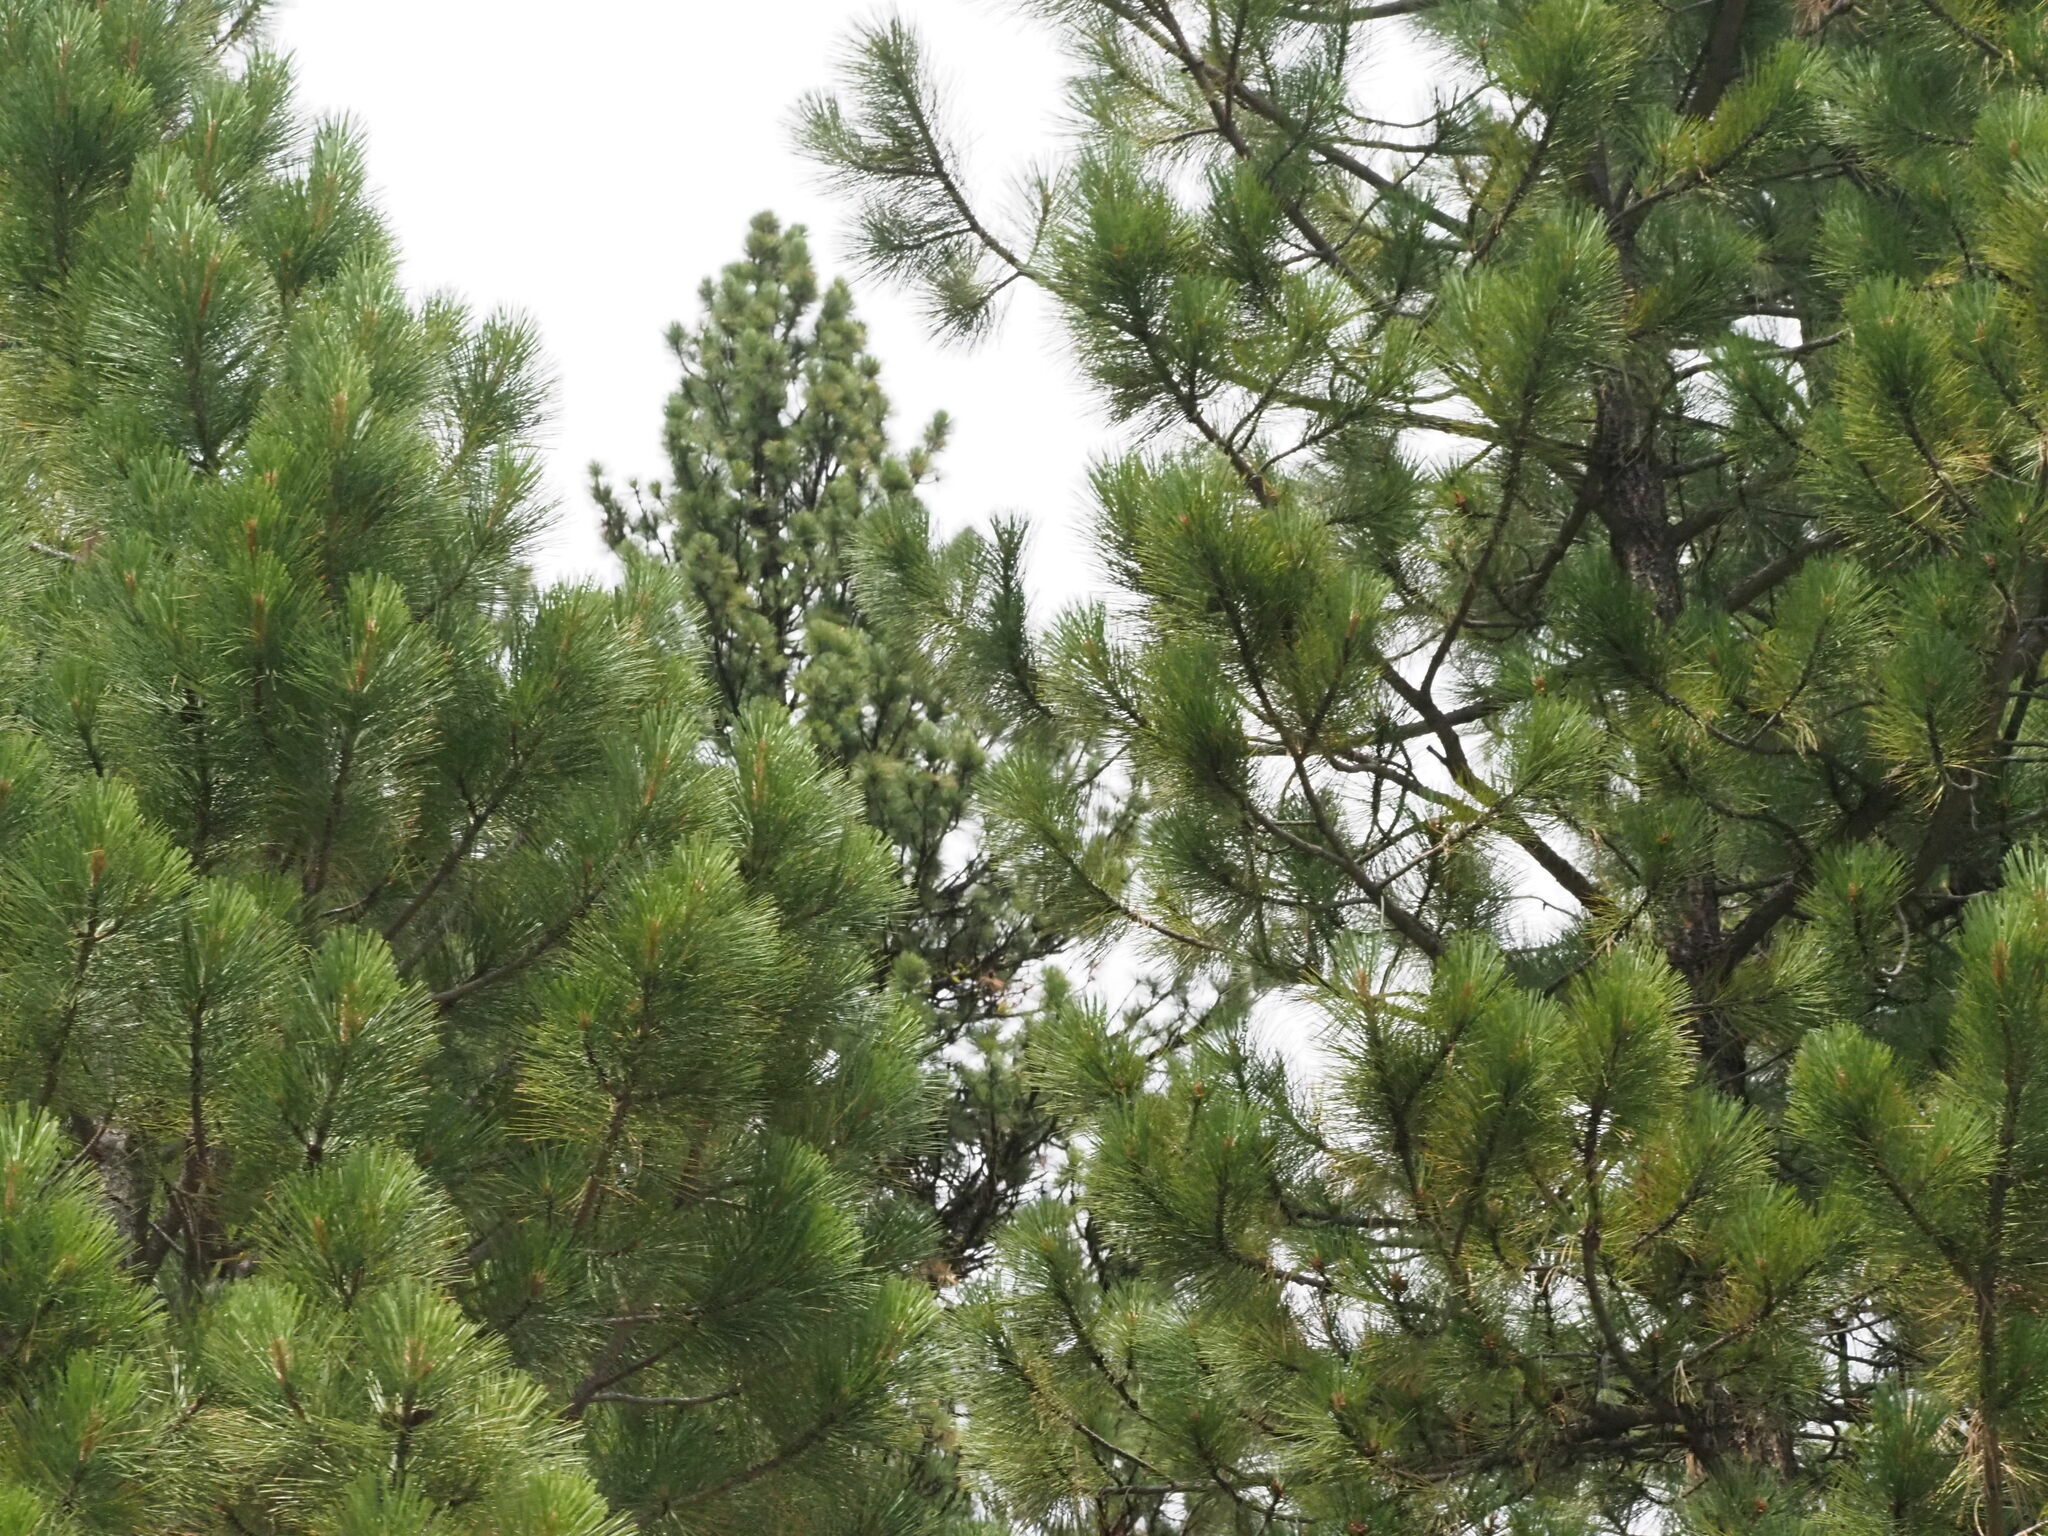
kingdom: Plantae
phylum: Tracheophyta
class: Pinopsida
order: Pinales
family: Pinaceae
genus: Pinus
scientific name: Pinus ponderosa
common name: Western yellow-pine
